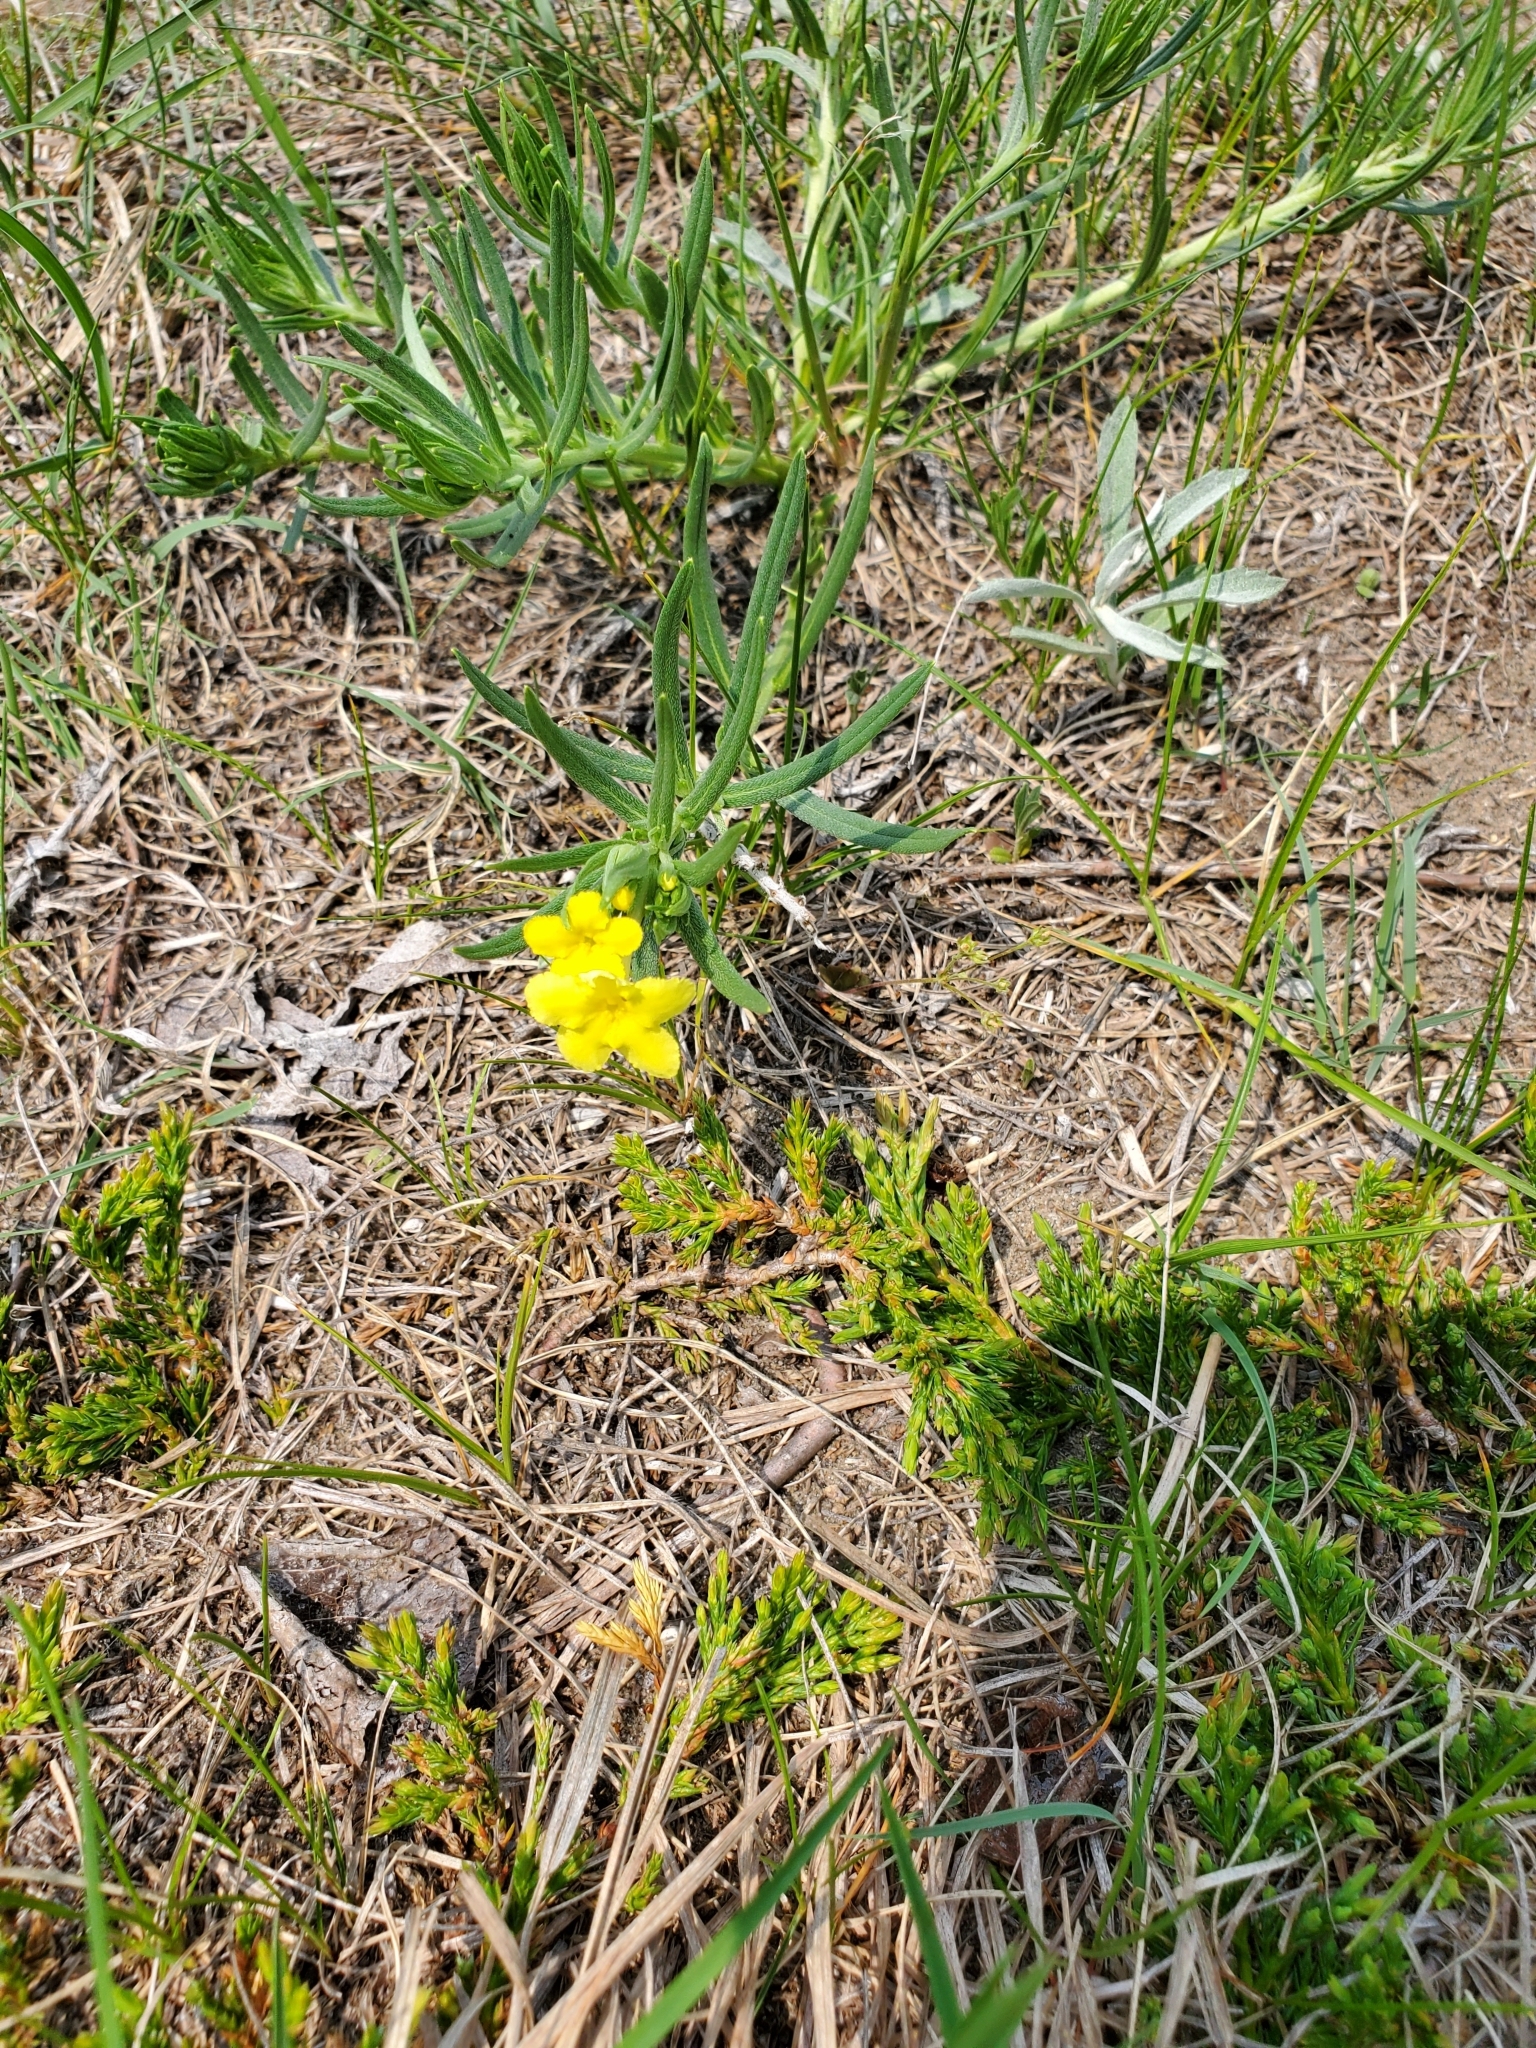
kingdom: Plantae
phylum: Tracheophyta
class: Magnoliopsida
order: Boraginales
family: Boraginaceae
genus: Lithospermum
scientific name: Lithospermum incisum
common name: Fringed gromwell
